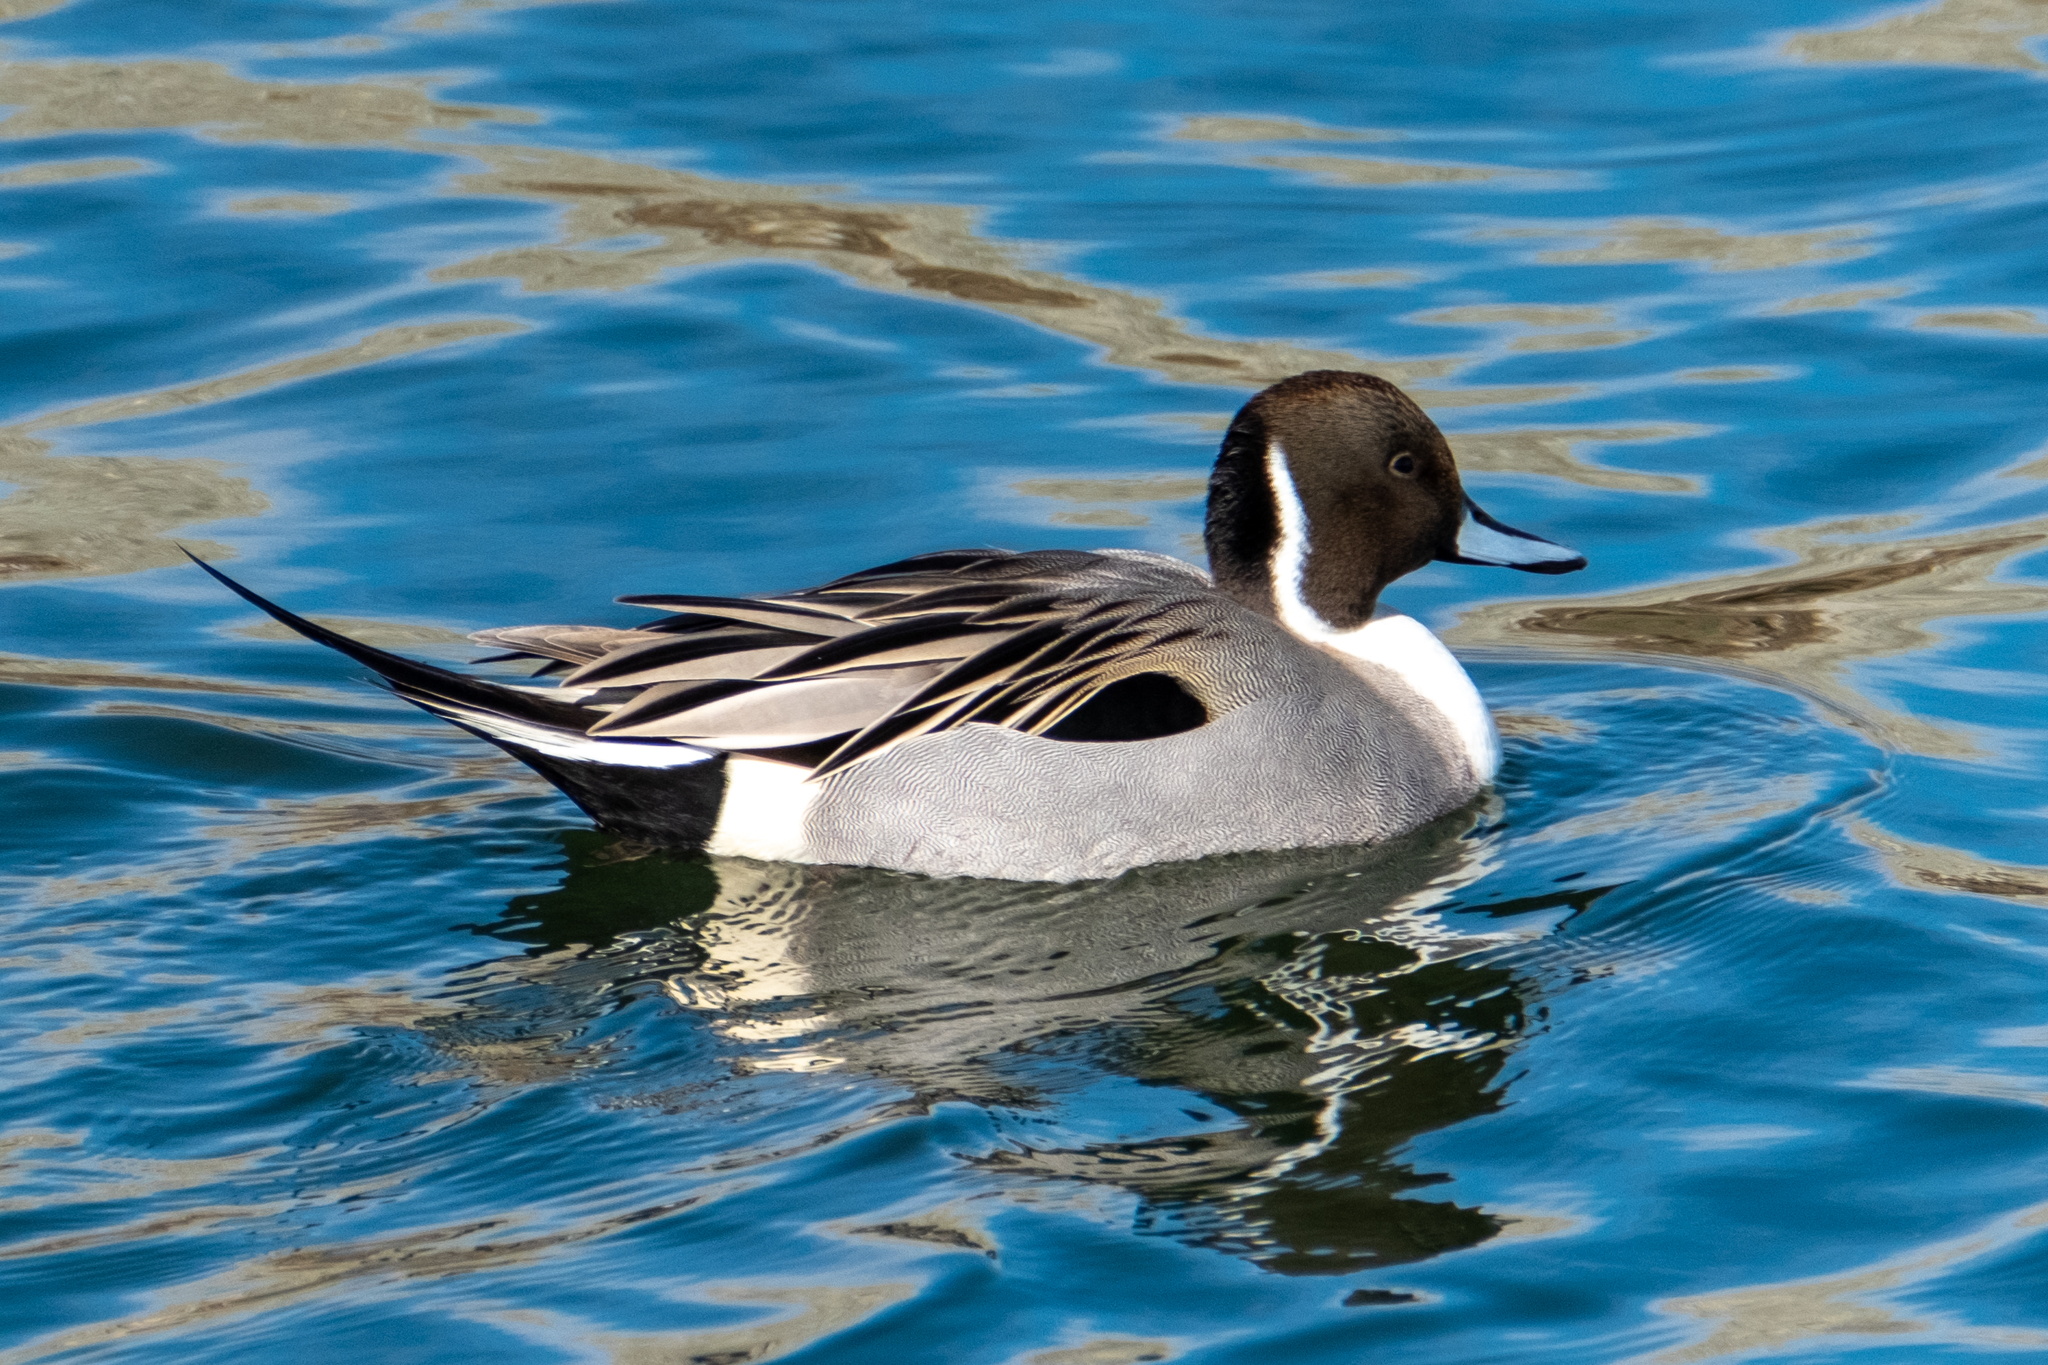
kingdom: Animalia
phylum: Chordata
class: Aves
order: Anseriformes
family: Anatidae
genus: Anas
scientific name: Anas acuta
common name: Northern pintail
